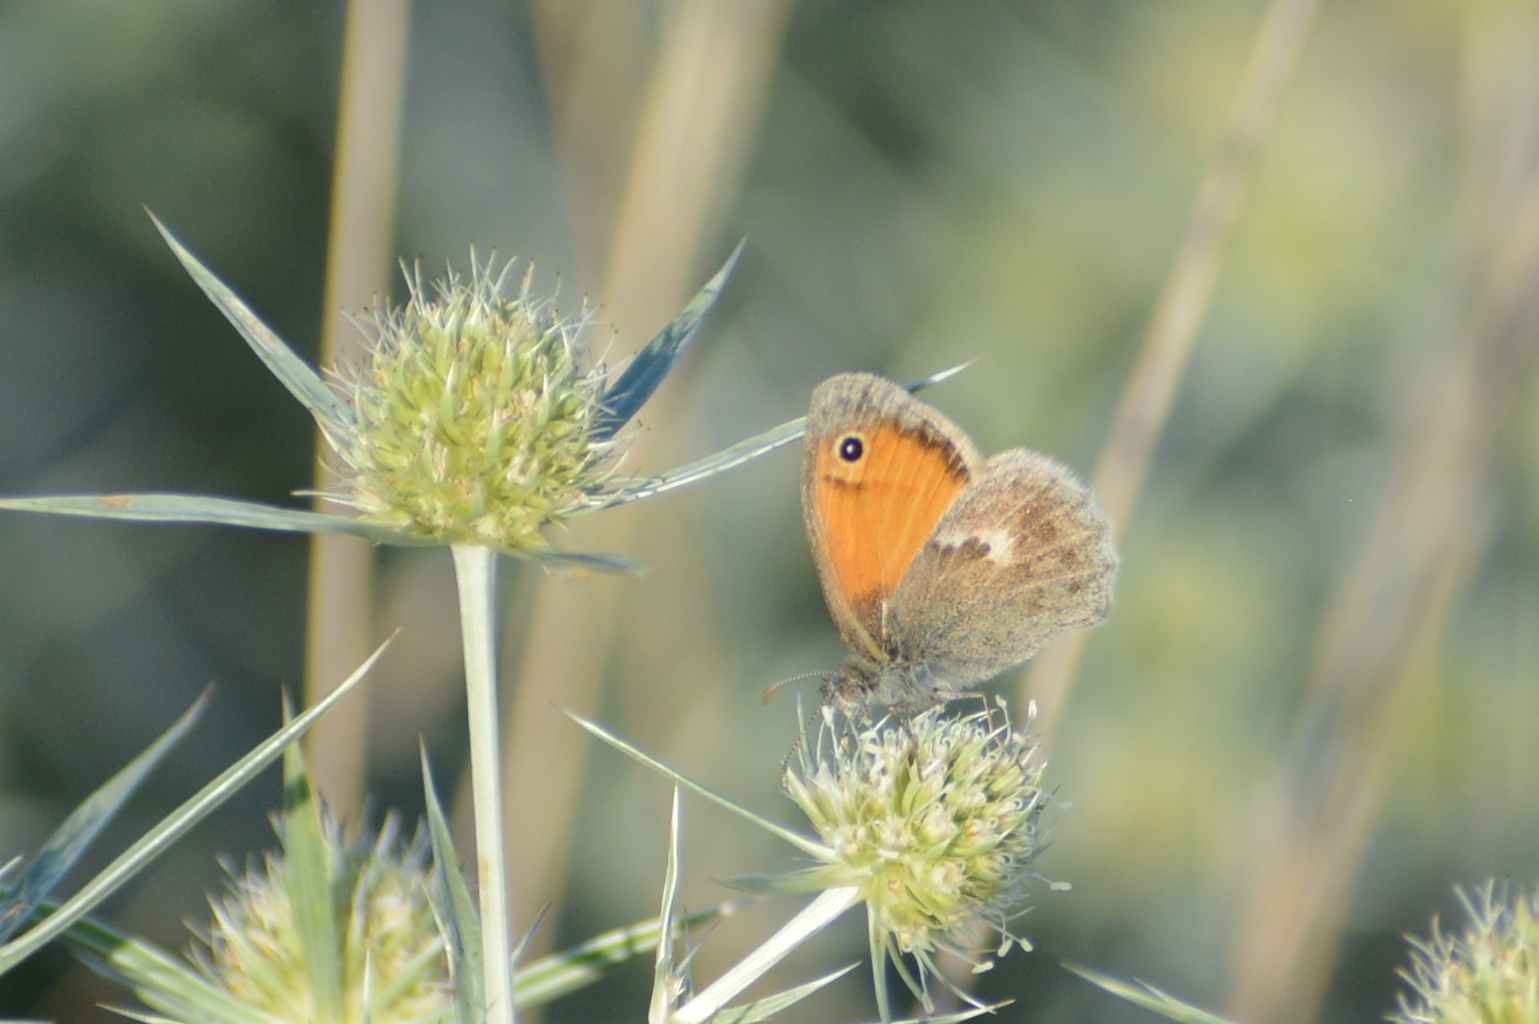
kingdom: Animalia
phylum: Arthropoda
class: Insecta
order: Lepidoptera
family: Nymphalidae
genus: Coenonympha
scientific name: Coenonympha pamphilus
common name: Small heath
